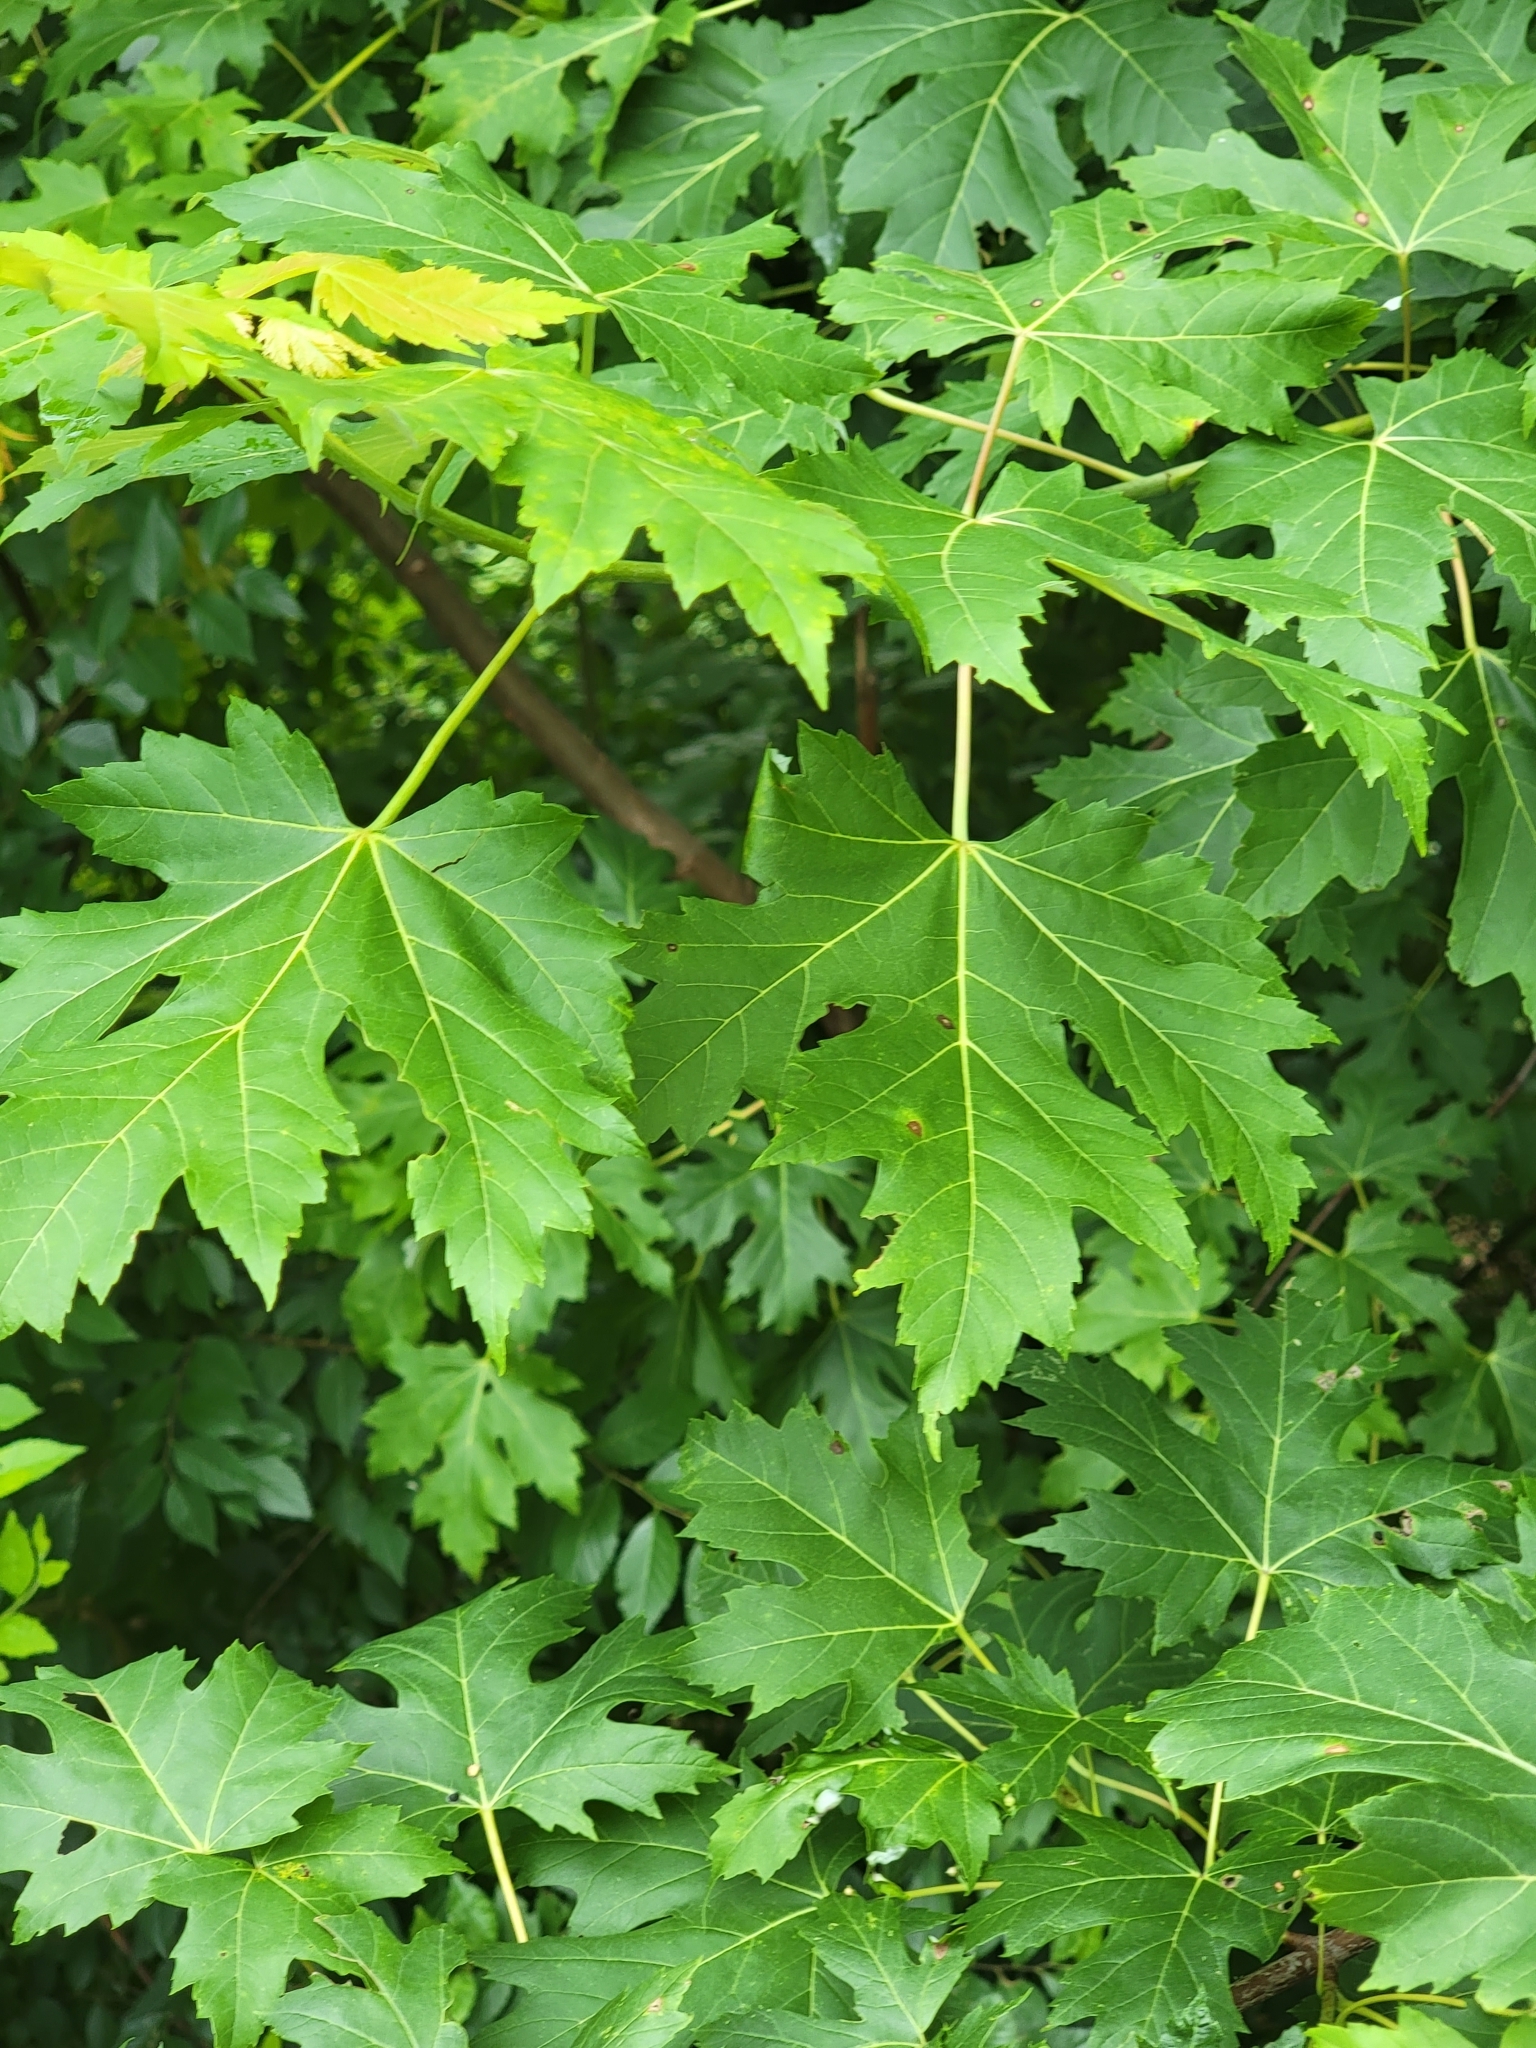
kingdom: Plantae
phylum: Tracheophyta
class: Magnoliopsida
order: Sapindales
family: Sapindaceae
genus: Acer
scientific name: Acer saccharinum
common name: Silver maple
